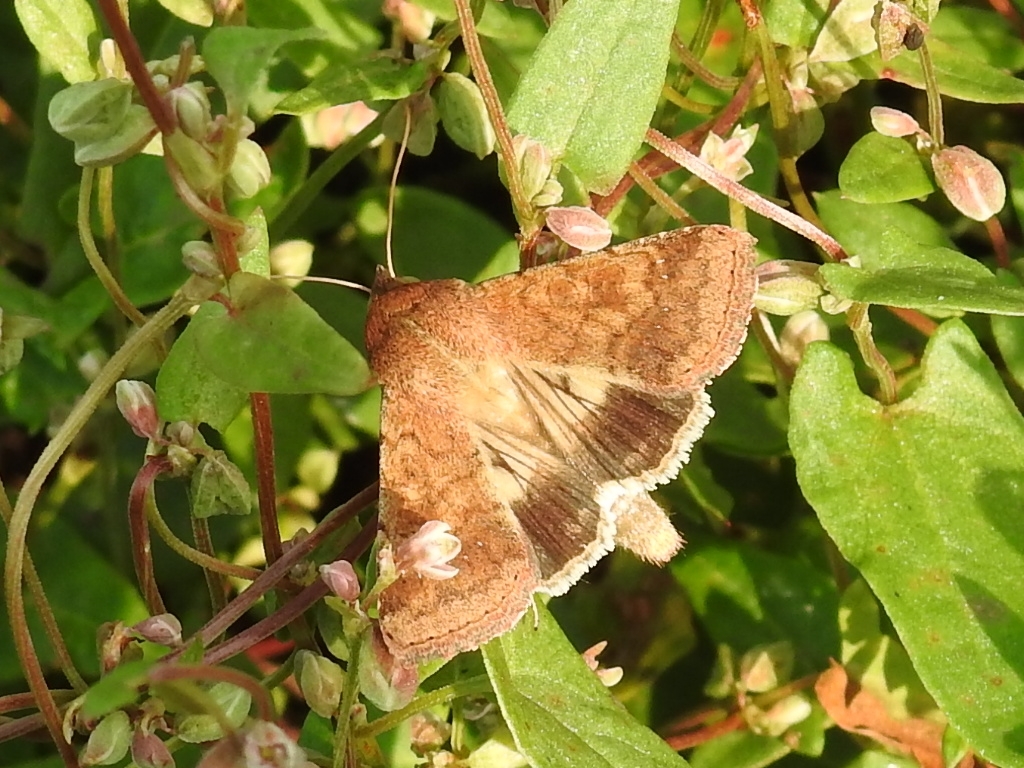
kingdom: Animalia
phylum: Arthropoda
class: Insecta
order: Lepidoptera
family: Noctuidae
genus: Helicoverpa
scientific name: Helicoverpa armigera
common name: Cotton bollworm
